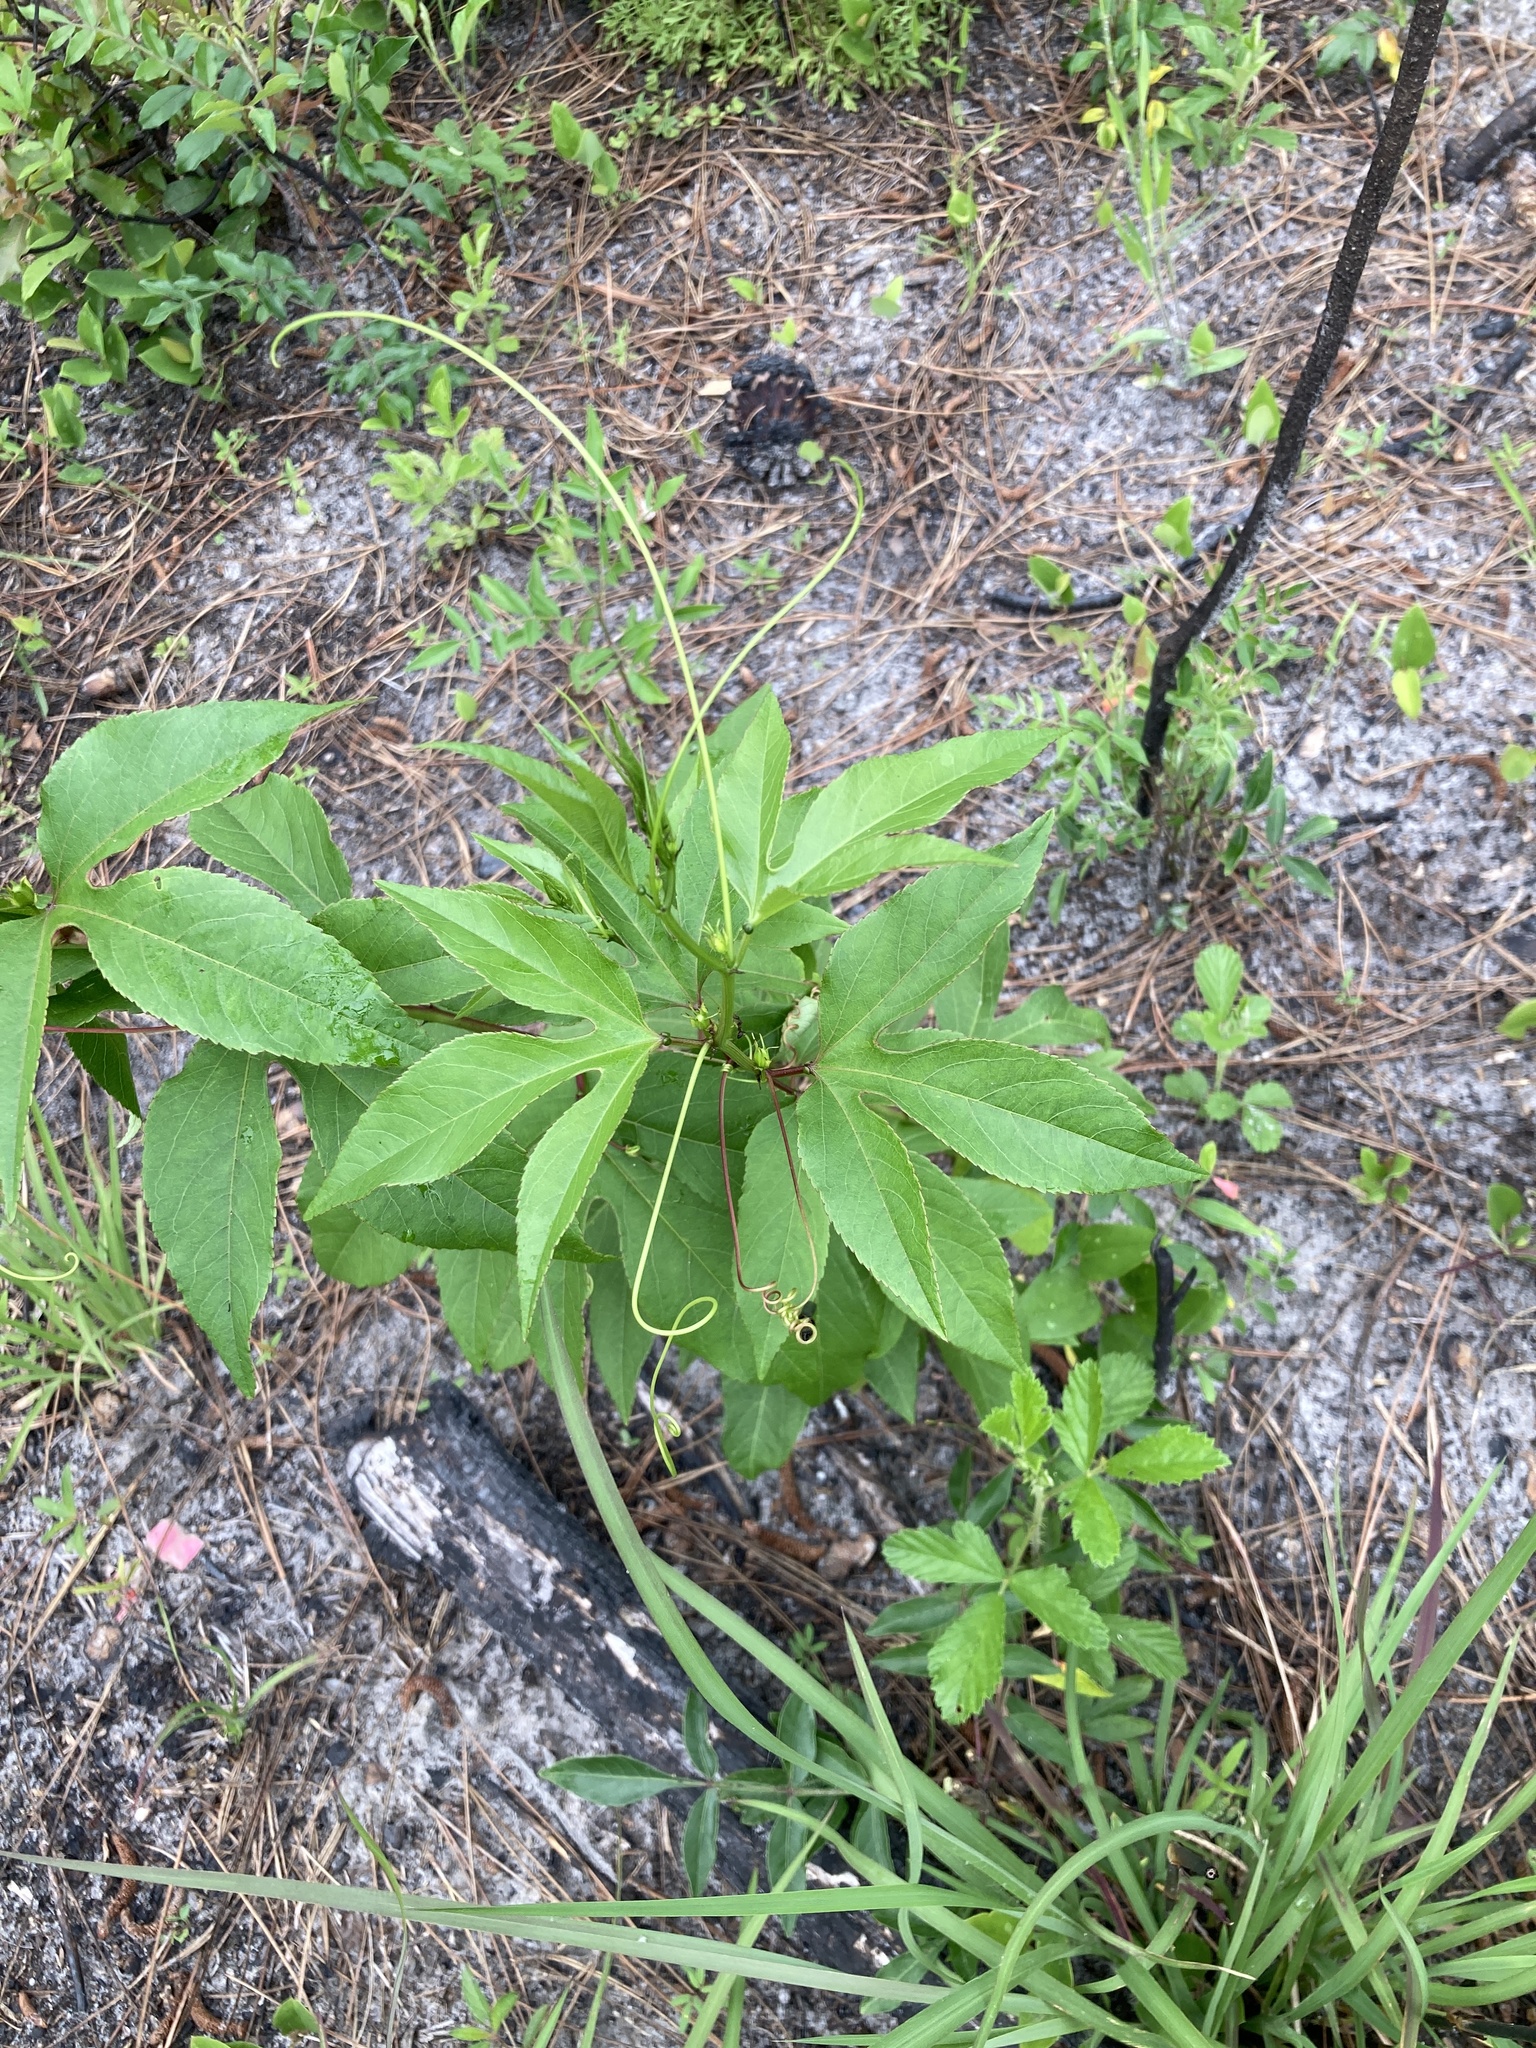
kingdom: Plantae
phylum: Tracheophyta
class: Magnoliopsida
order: Malpighiales
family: Passifloraceae
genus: Passiflora
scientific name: Passiflora incarnata
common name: Apricot-vine
